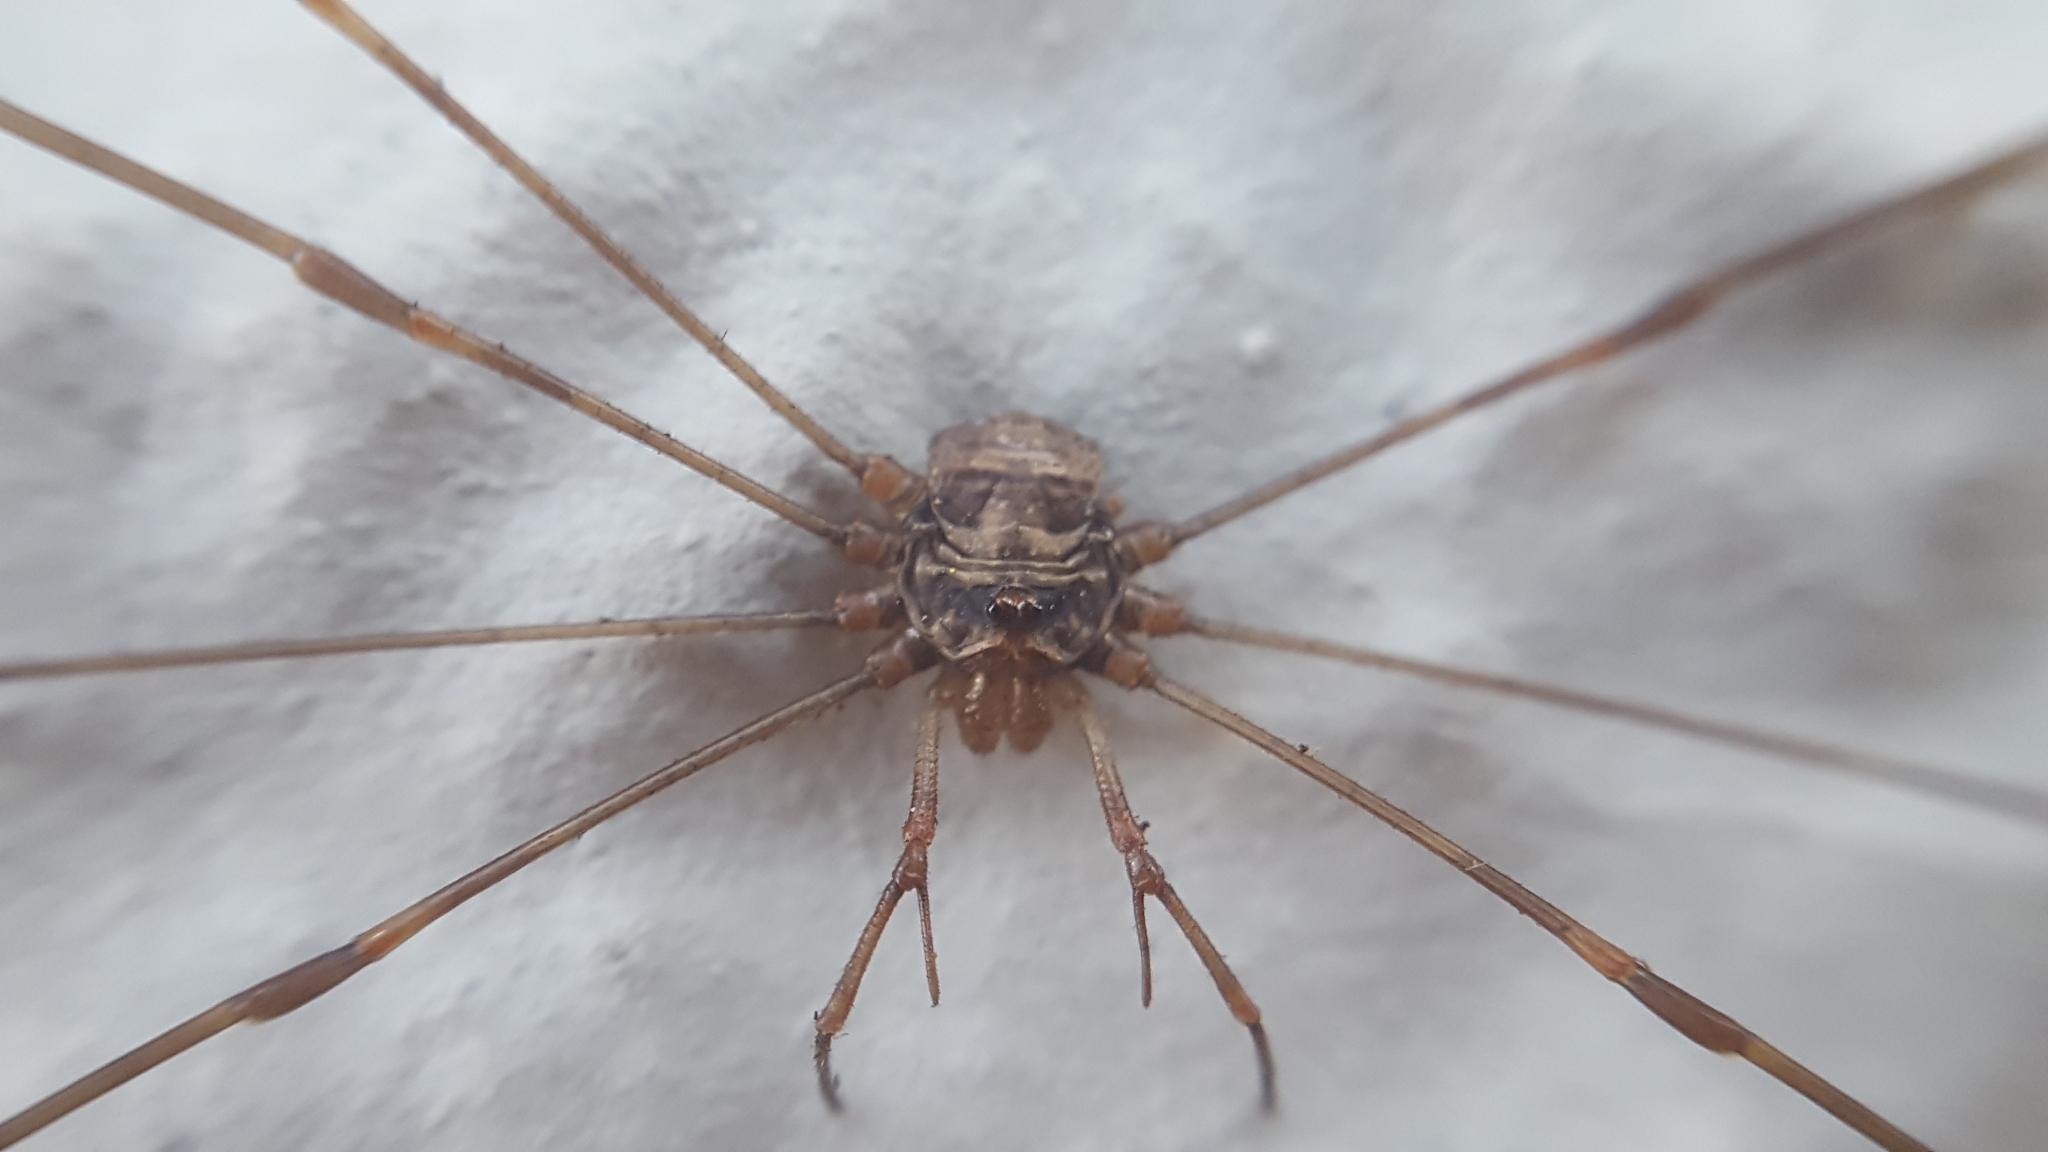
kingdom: Animalia
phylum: Arthropoda
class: Arachnida
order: Opiliones
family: Phalangiidae
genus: Dicranopalpus
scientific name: Dicranopalpus ramosus
